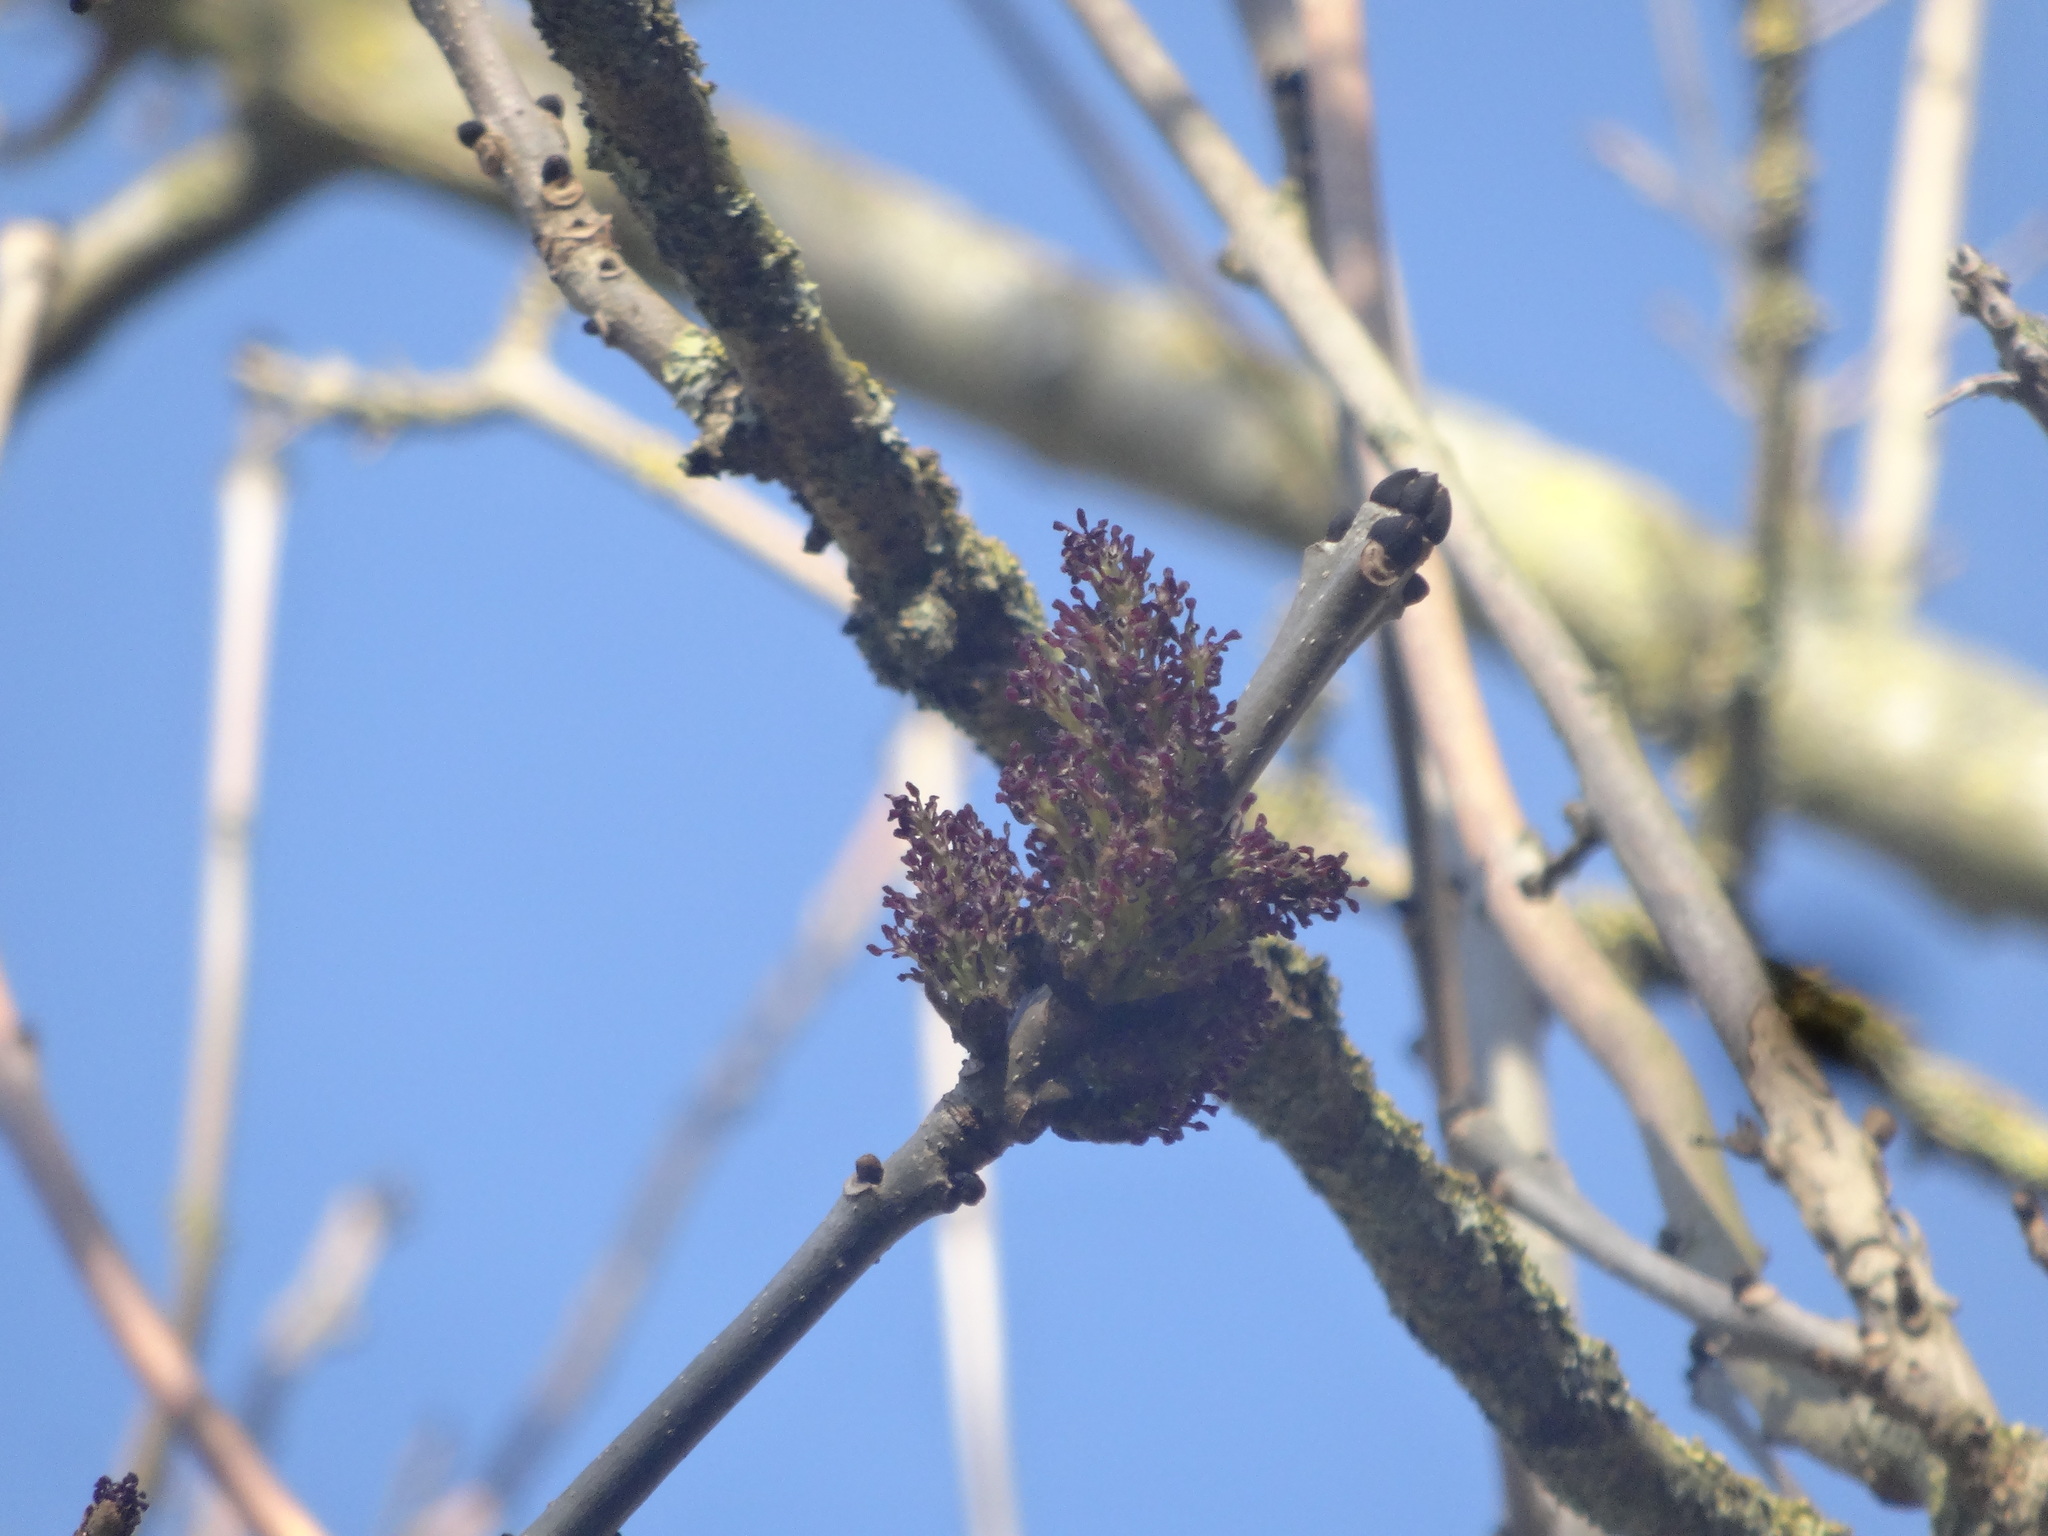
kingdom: Plantae
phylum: Tracheophyta
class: Magnoliopsida
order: Lamiales
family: Oleaceae
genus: Fraxinus
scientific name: Fraxinus excelsior
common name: European ash
